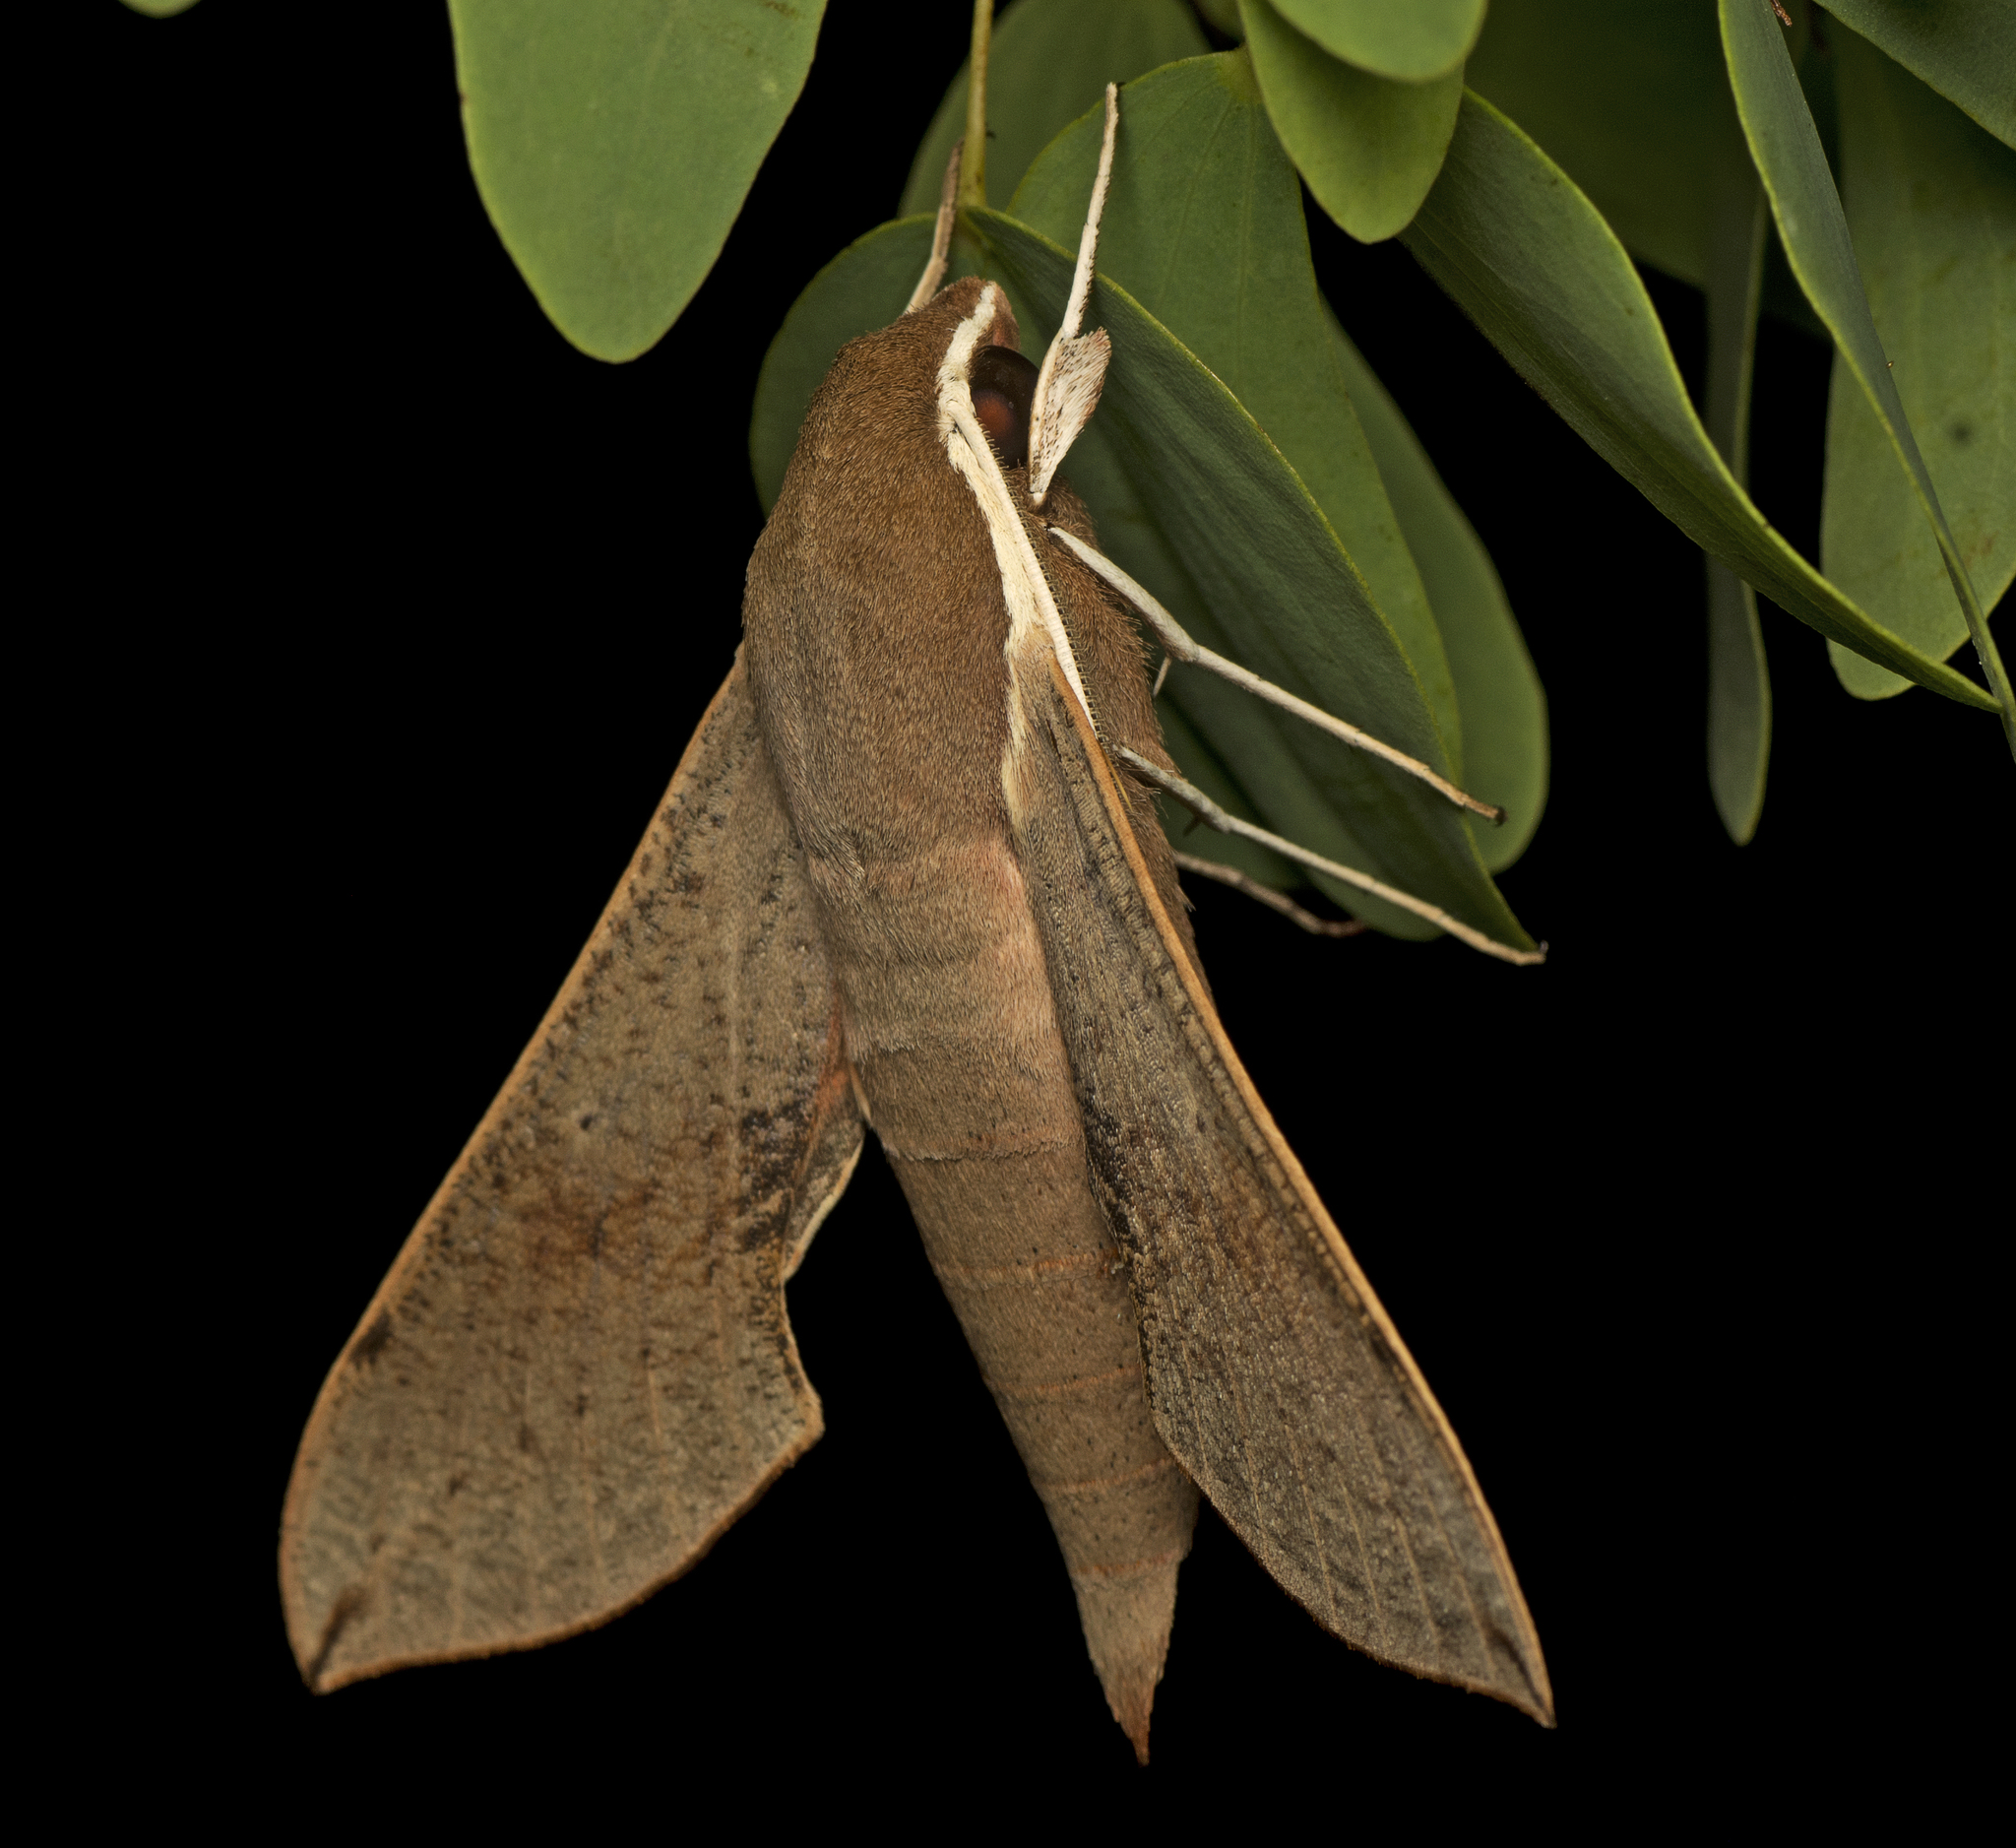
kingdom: Animalia
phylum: Arthropoda
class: Insecta
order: Lepidoptera
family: Sphingidae
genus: Hippotion
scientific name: Hippotion scrofa
